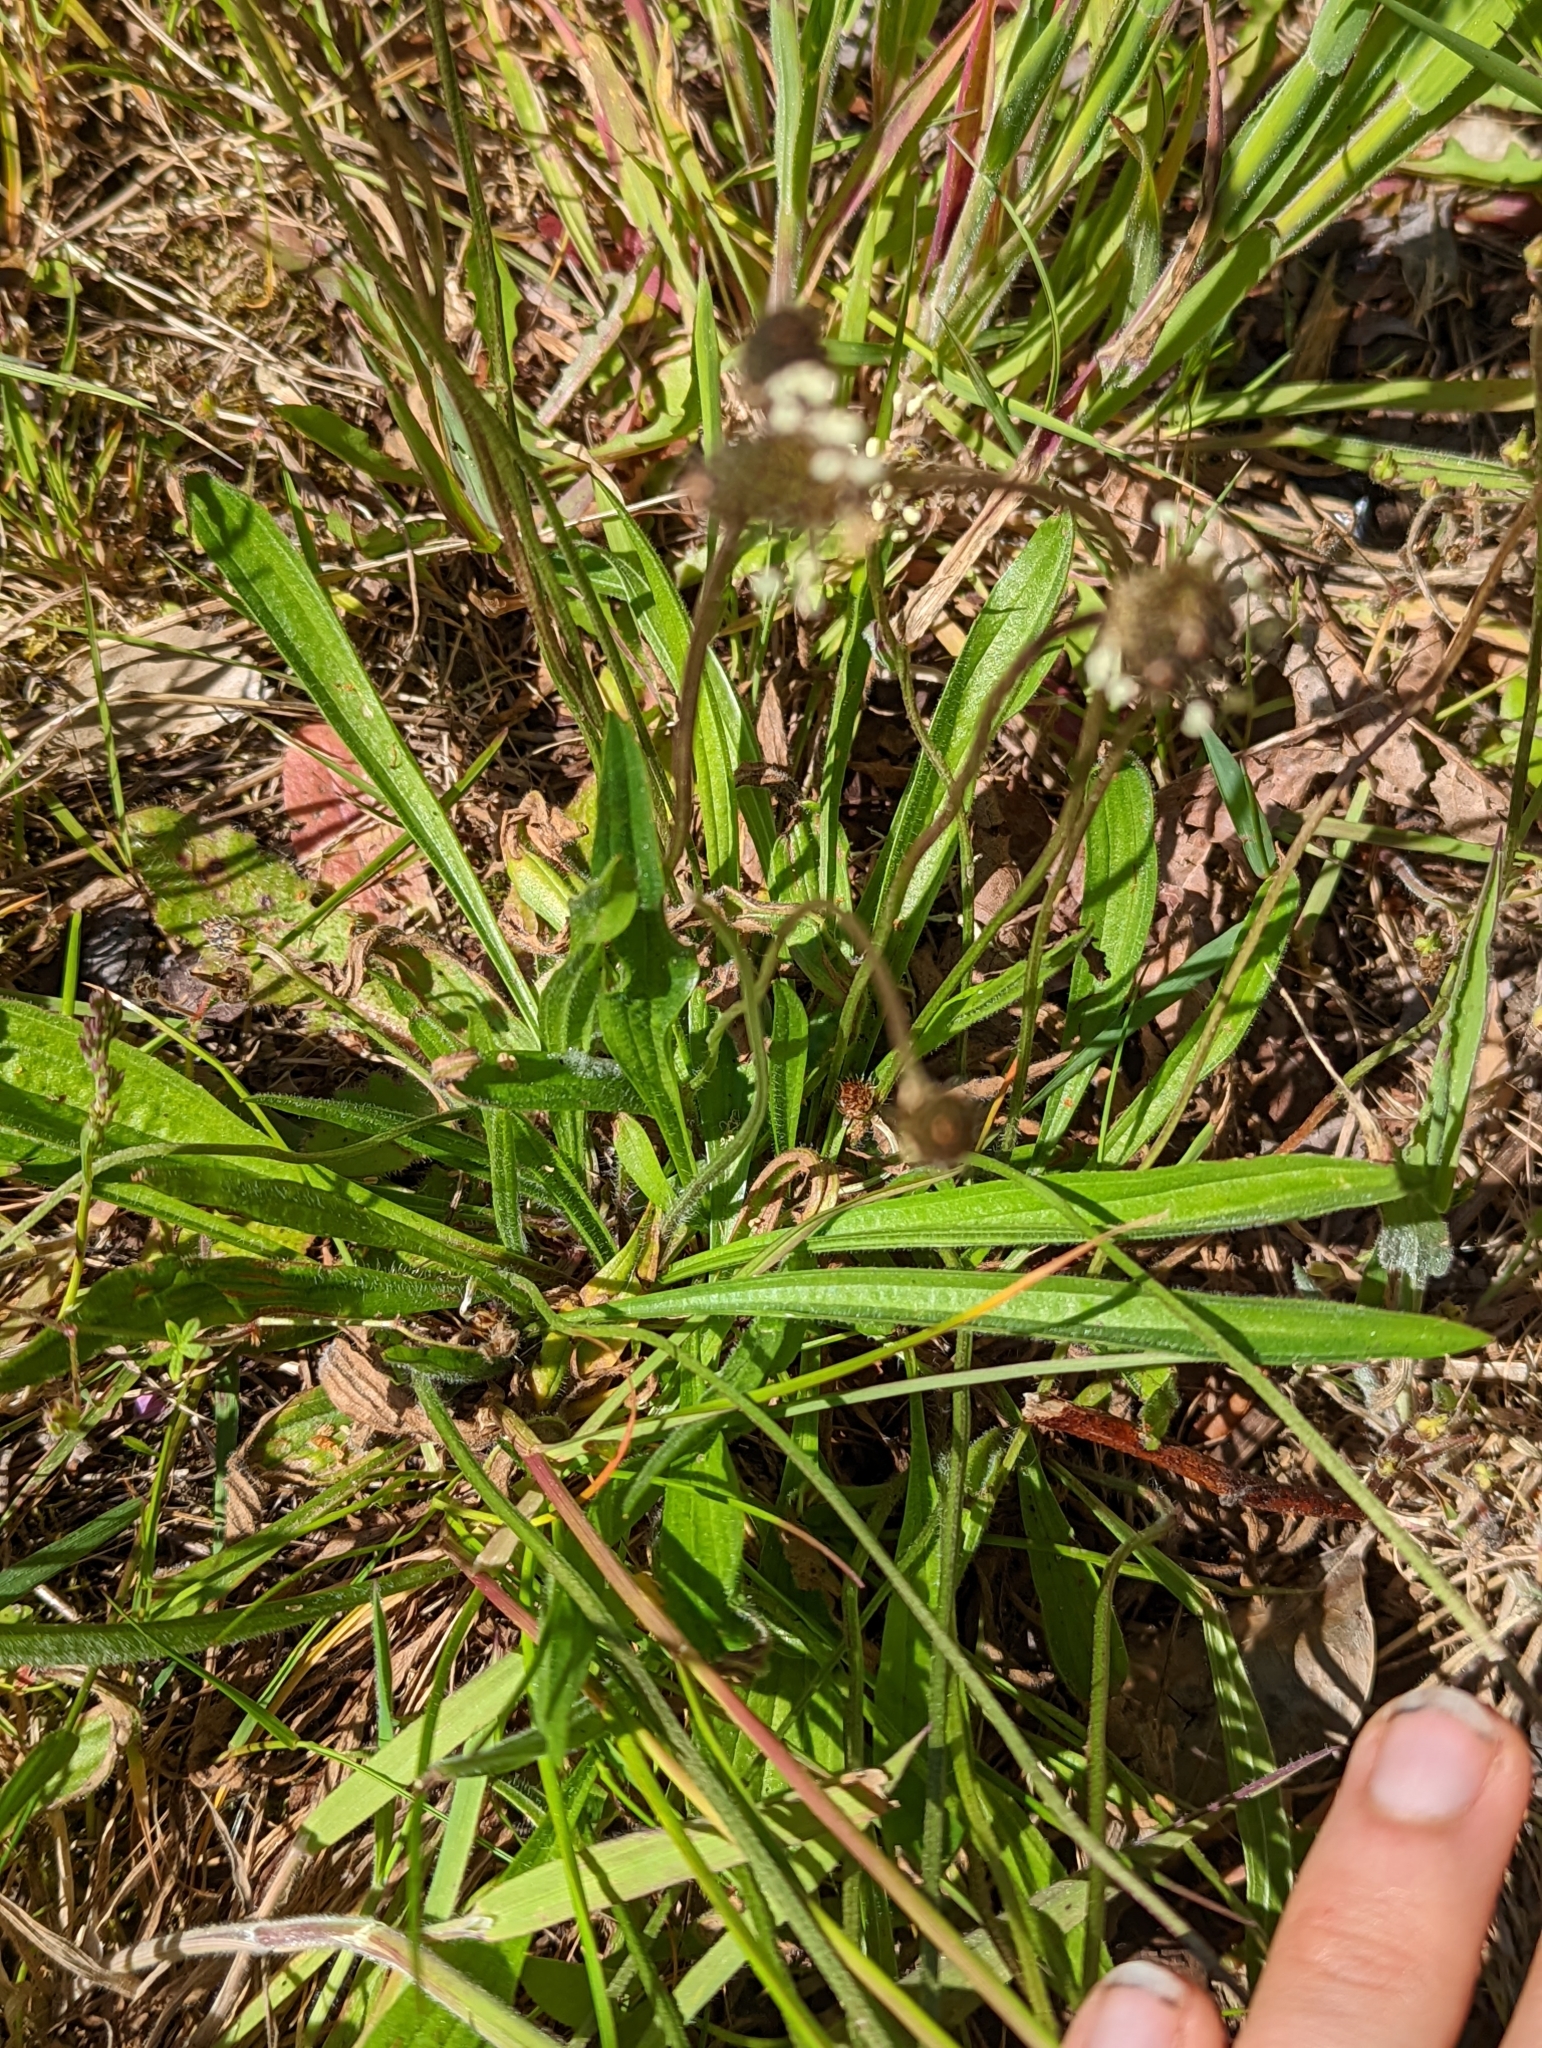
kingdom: Plantae
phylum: Tracheophyta
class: Magnoliopsida
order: Lamiales
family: Plantaginaceae
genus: Plantago
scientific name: Plantago lanceolata
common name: Ribwort plantain
